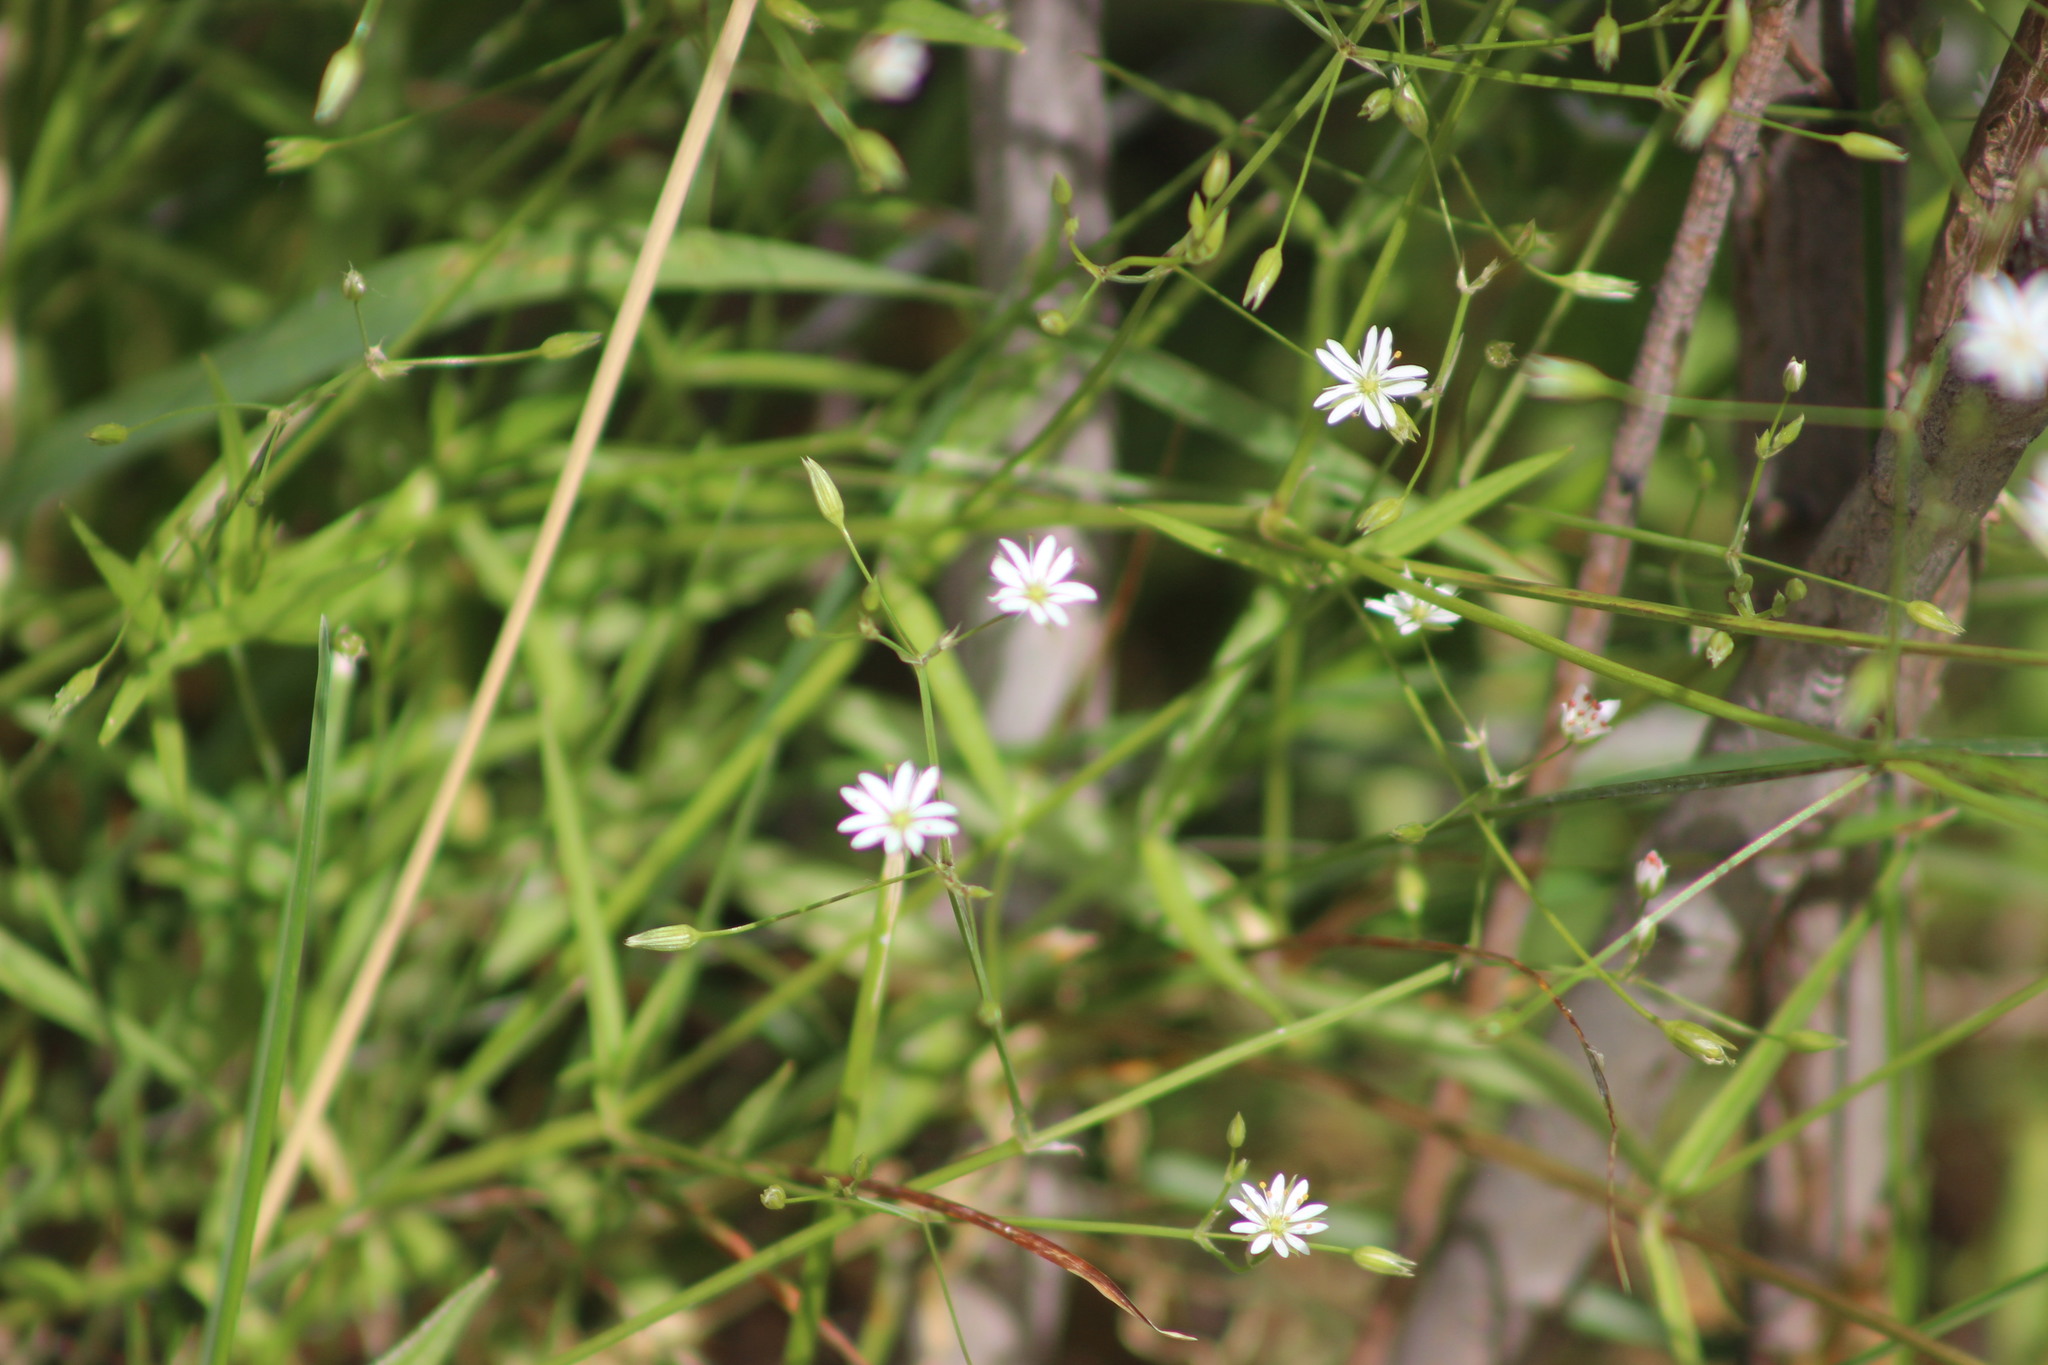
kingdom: Plantae
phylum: Tracheophyta
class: Magnoliopsida
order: Caryophyllales
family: Caryophyllaceae
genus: Stellaria
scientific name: Stellaria graminea
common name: Grass-like starwort
